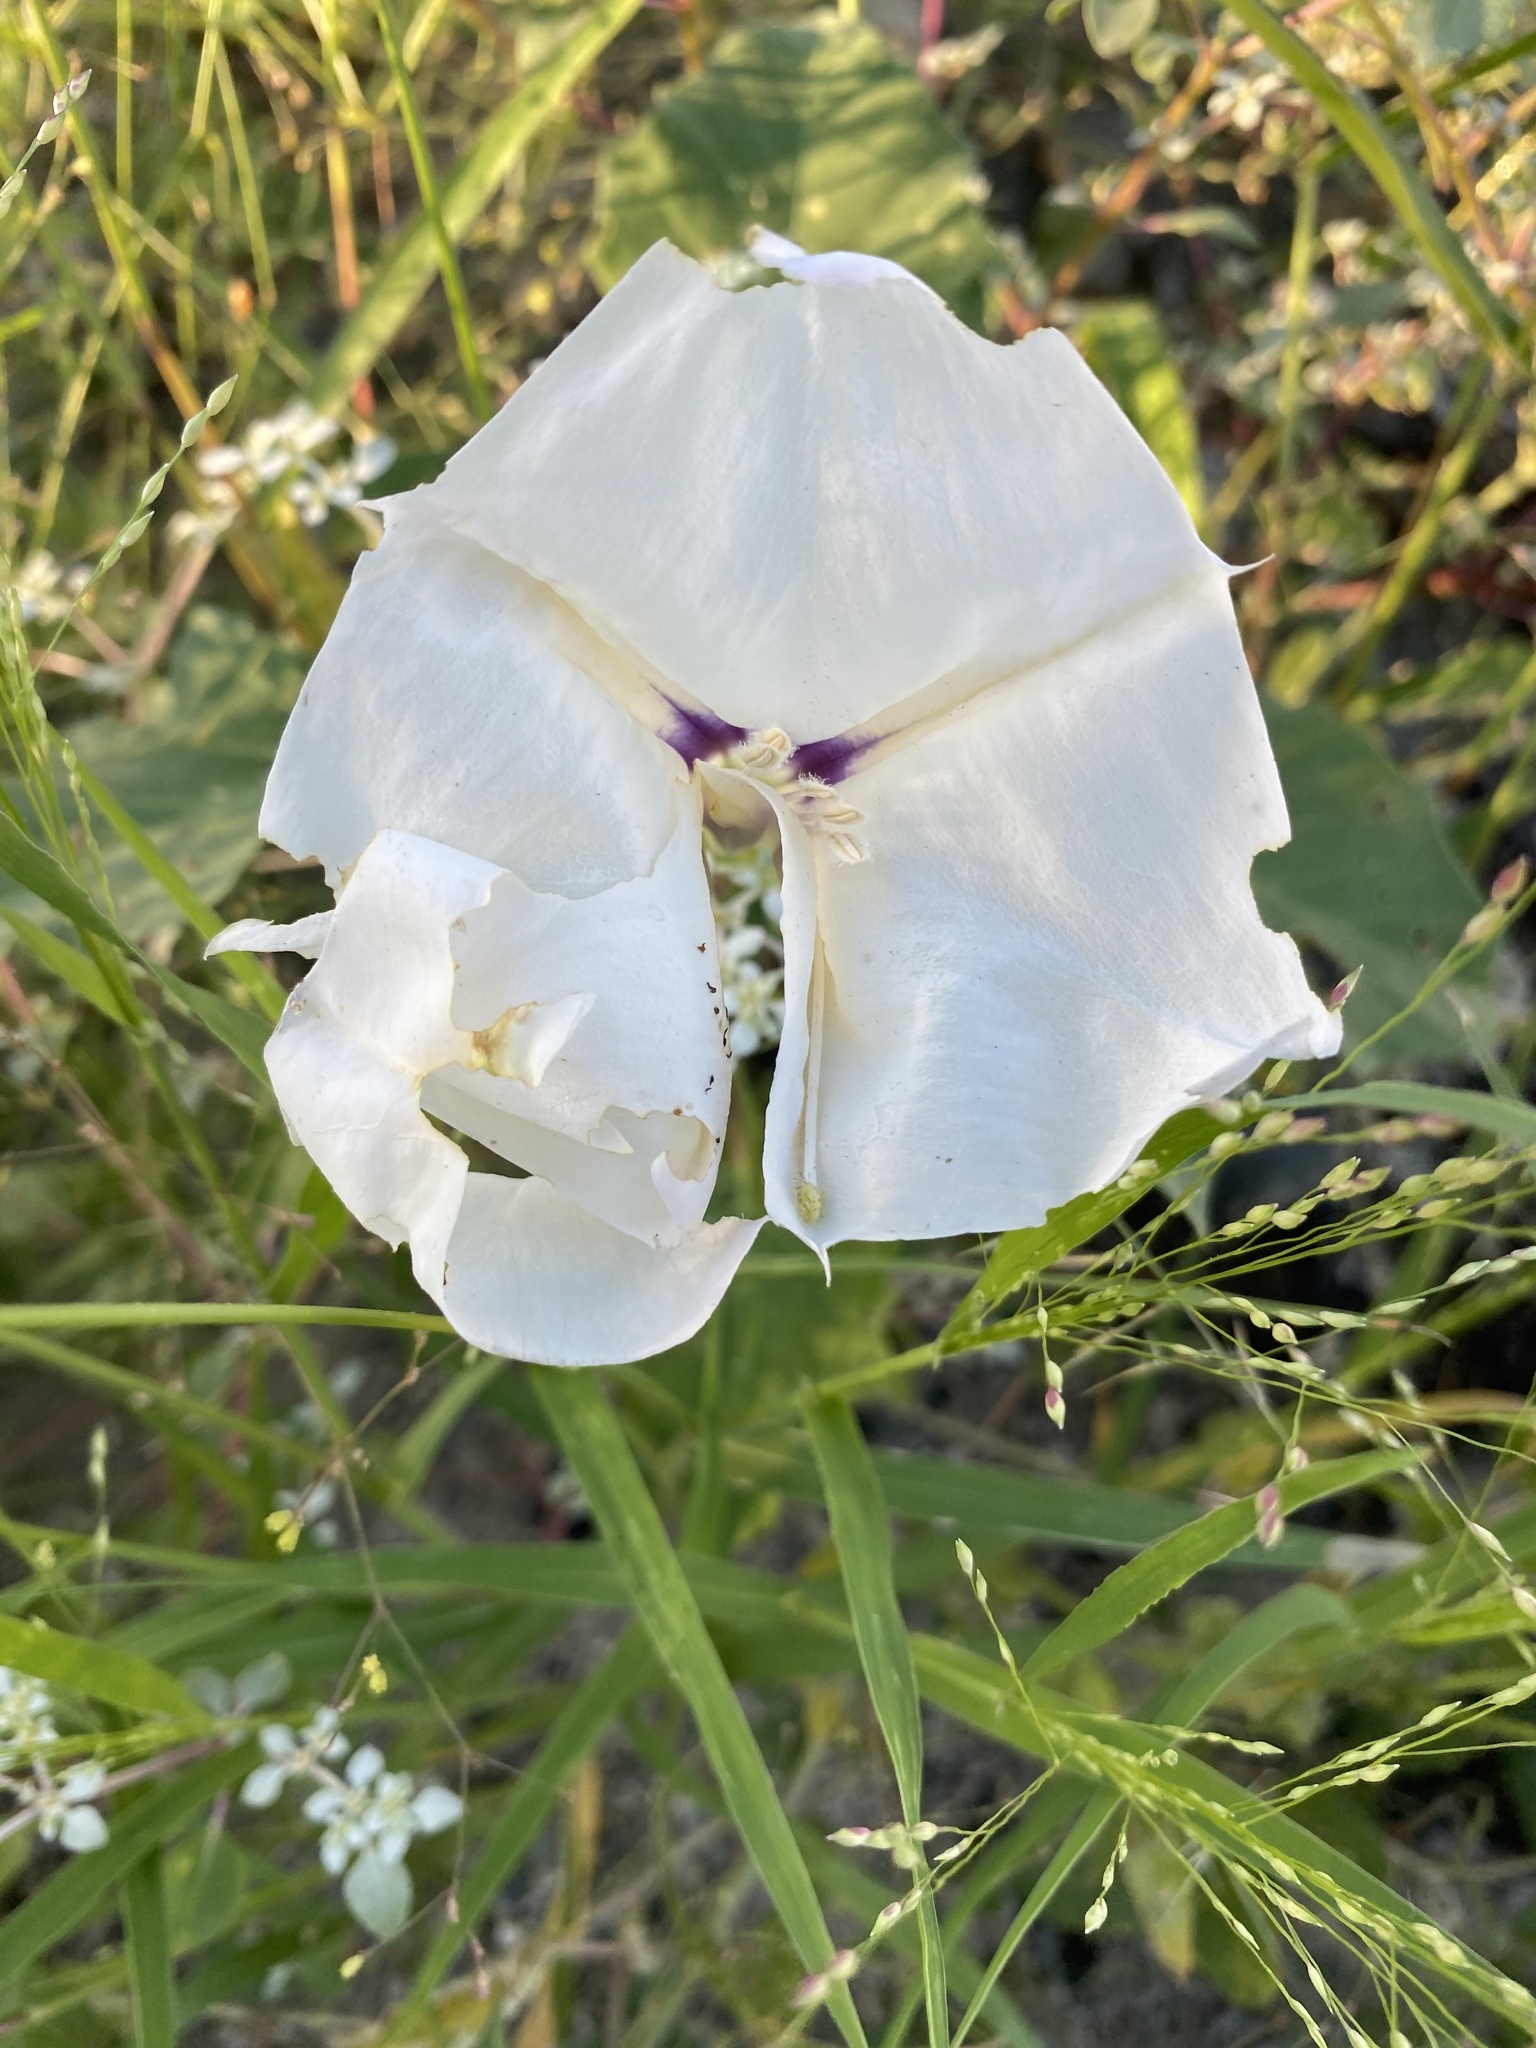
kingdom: Plantae
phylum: Tracheophyta
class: Magnoliopsida
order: Solanales
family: Solanaceae
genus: Datura
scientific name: Datura discolor
